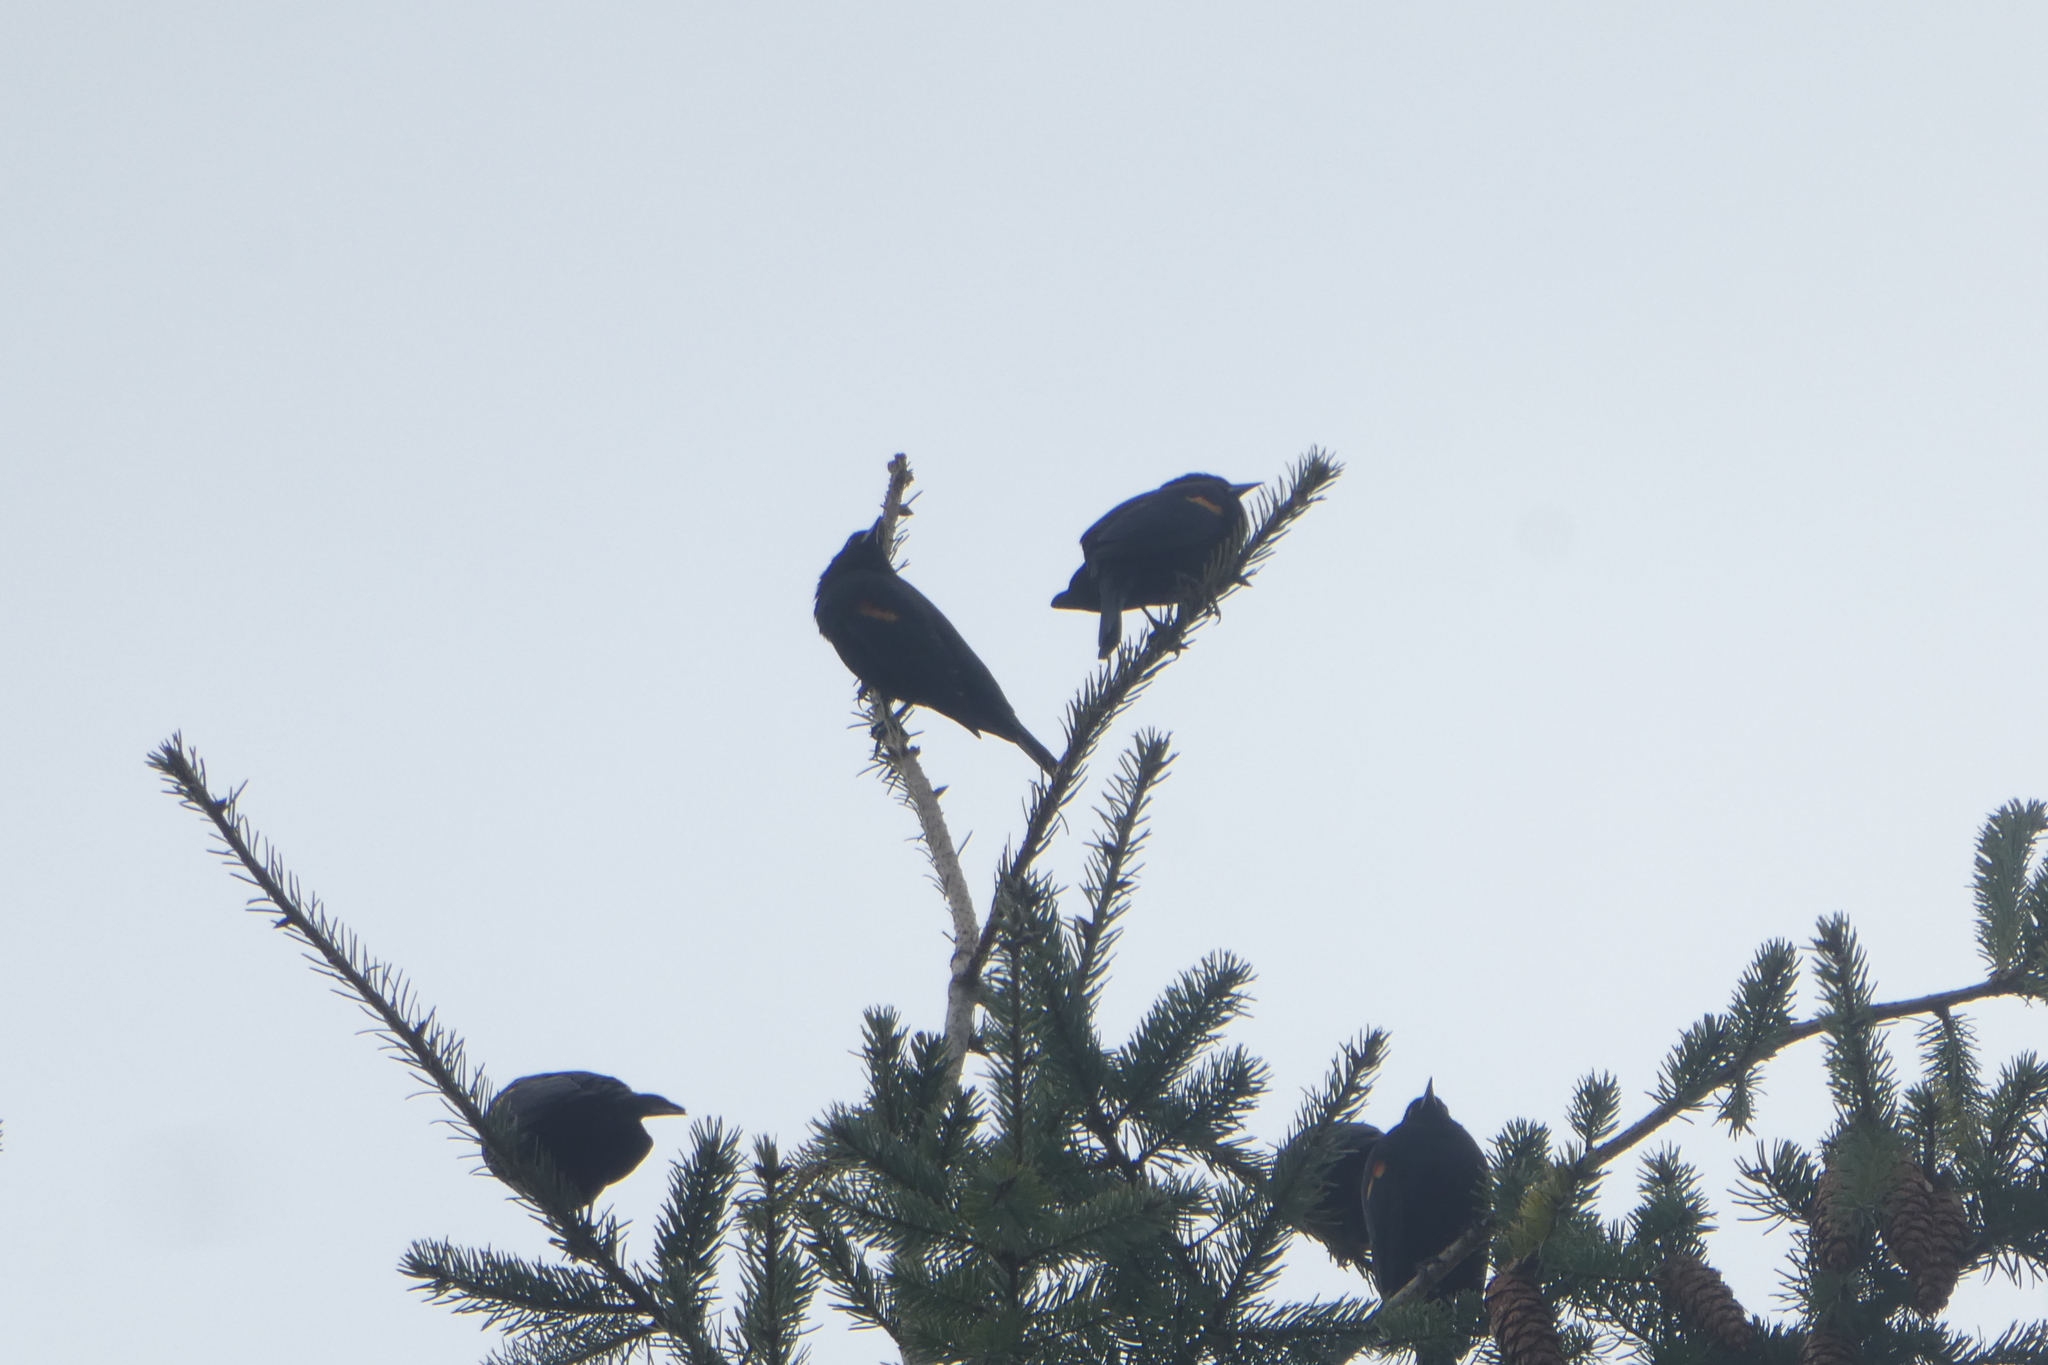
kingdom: Animalia
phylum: Chordata
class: Aves
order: Passeriformes
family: Icteridae
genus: Agelaius
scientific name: Agelaius phoeniceus
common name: Red-winged blackbird
